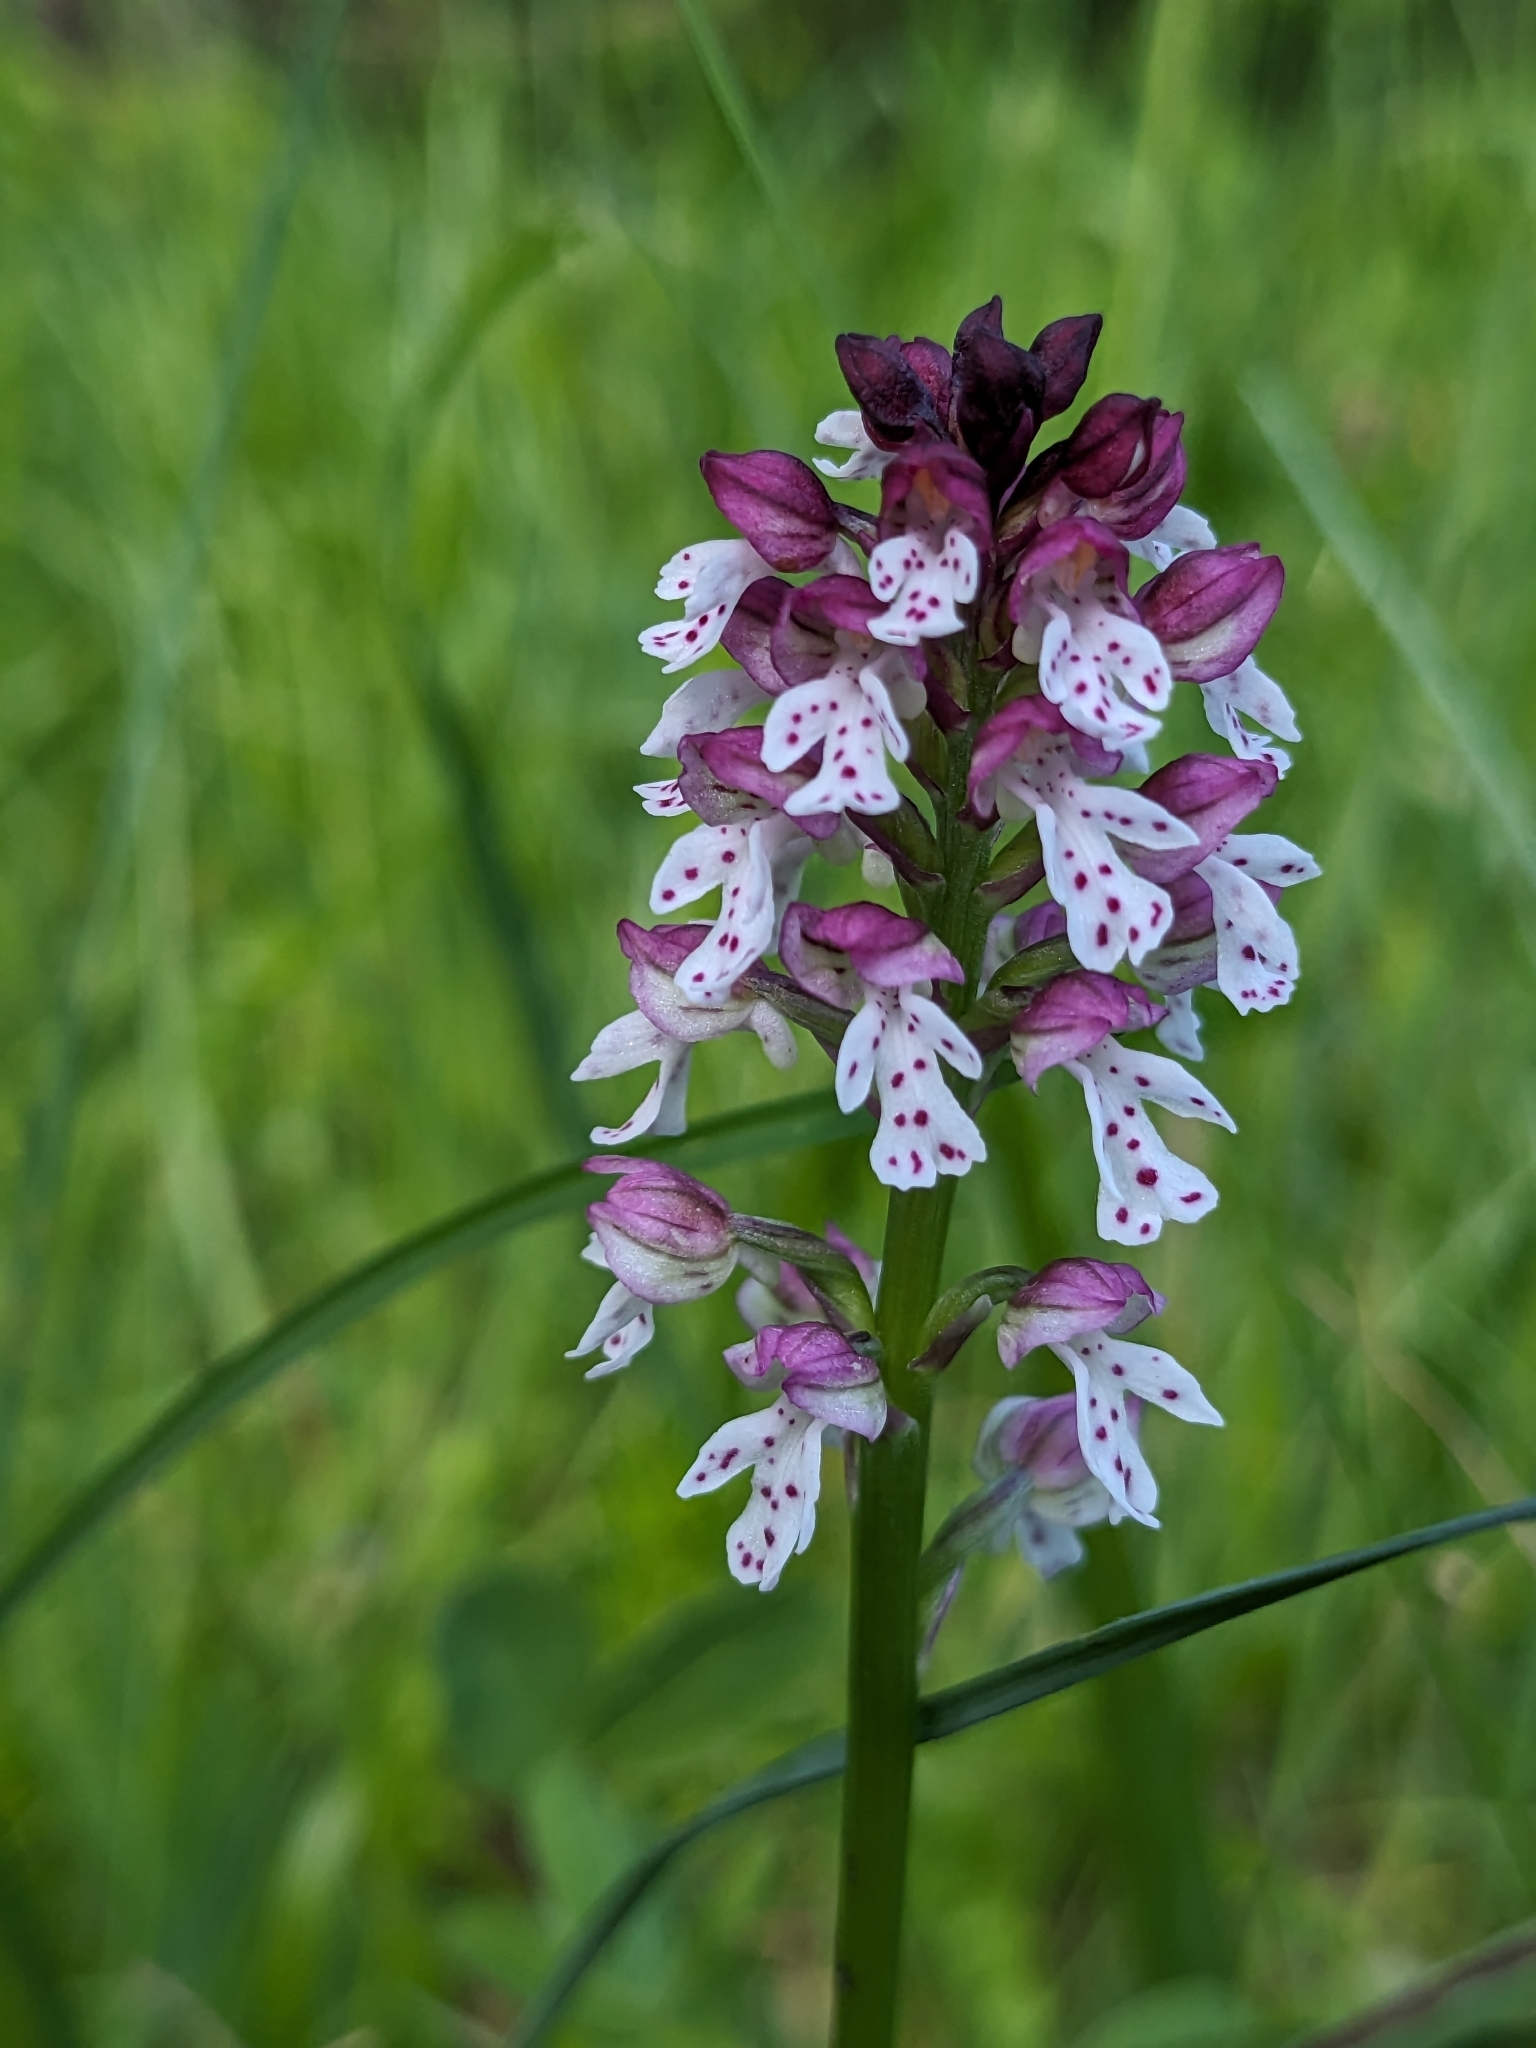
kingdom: Plantae
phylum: Tracheophyta
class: Liliopsida
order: Asparagales
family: Orchidaceae
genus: Neotinea
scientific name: Neotinea ustulata
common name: Burnt orchid
